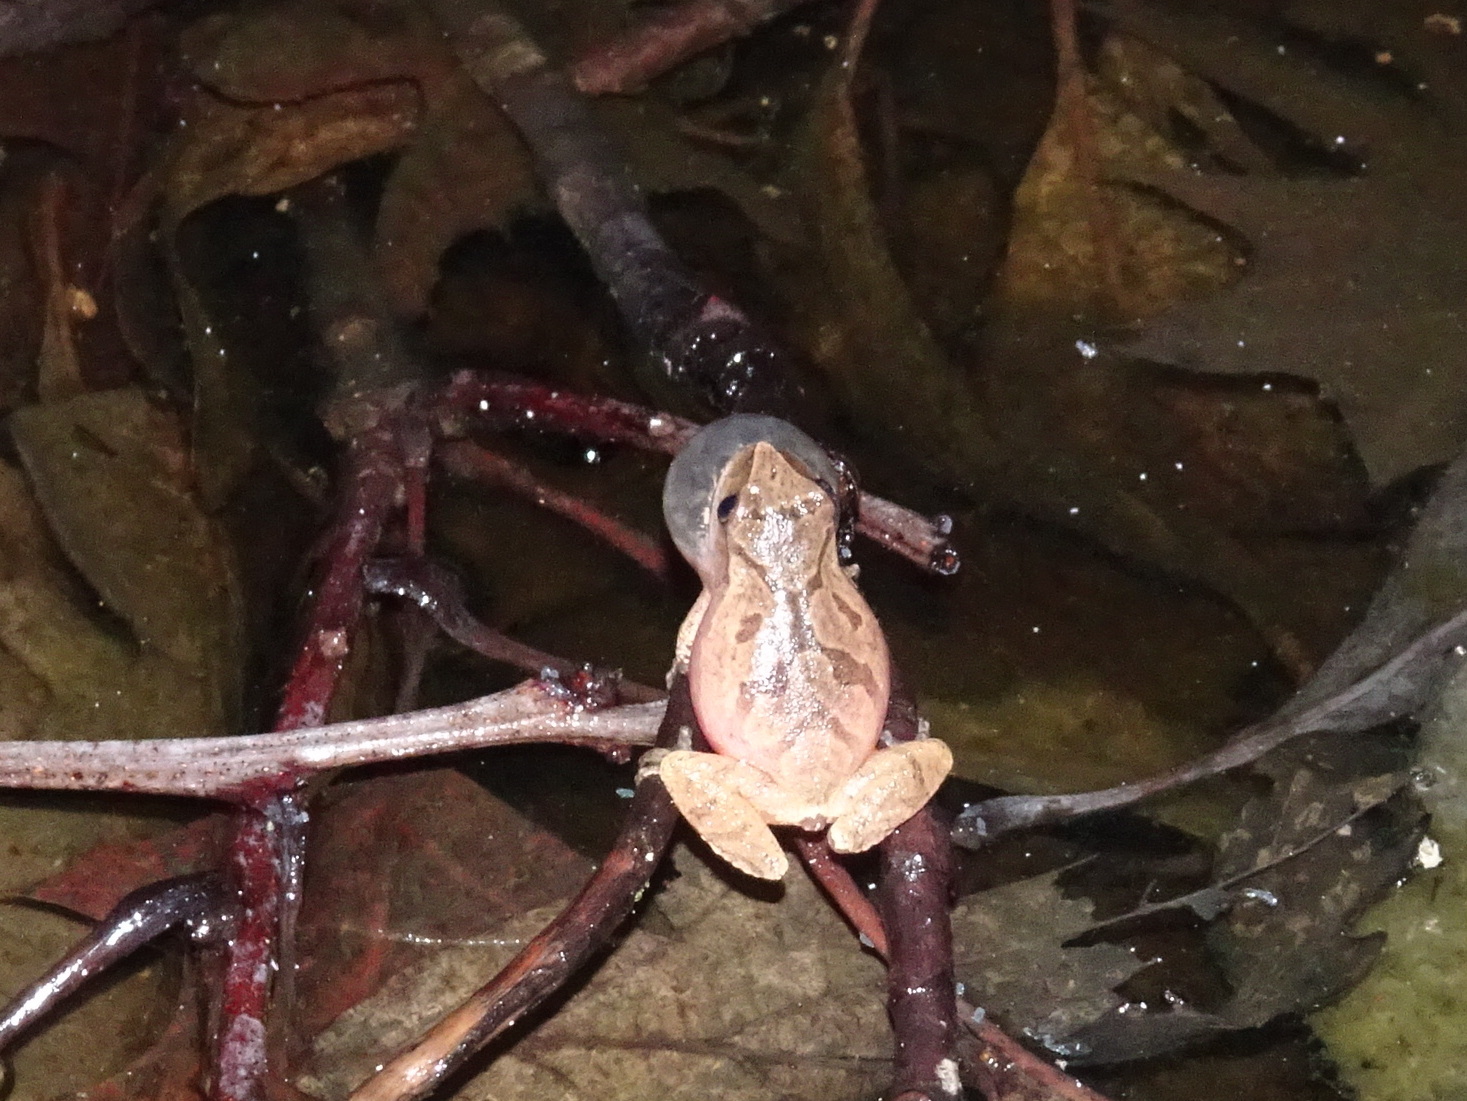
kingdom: Animalia
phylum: Chordata
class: Amphibia
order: Anura
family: Hylidae
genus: Pseudacris
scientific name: Pseudacris crucifer
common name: Spring peeper
